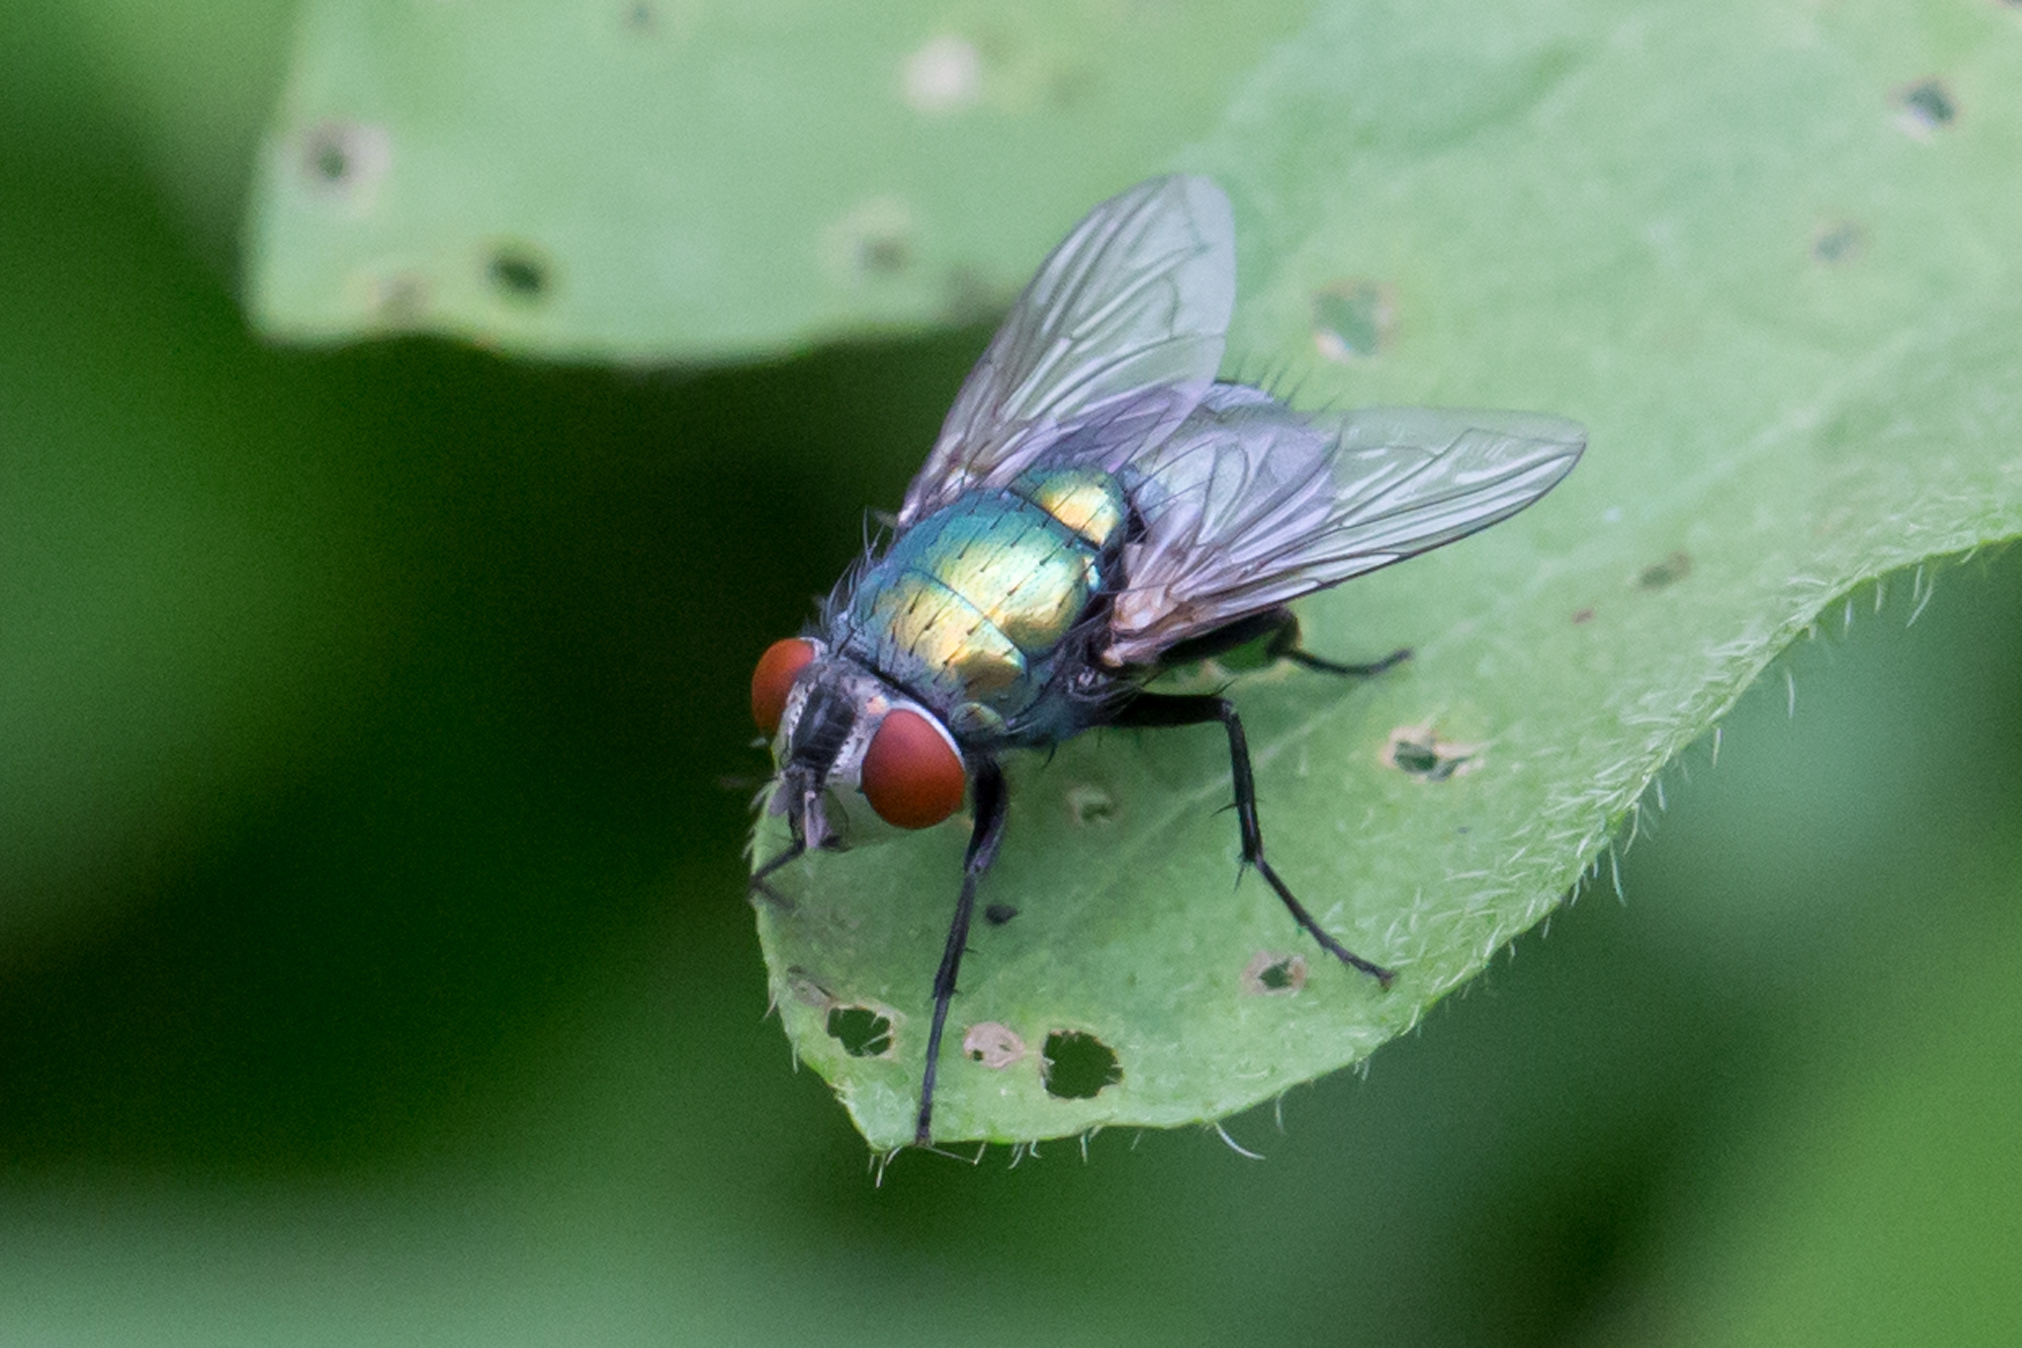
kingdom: Animalia
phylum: Arthropoda
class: Insecta
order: Diptera
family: Calliphoridae
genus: Lucilia
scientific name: Lucilia sericata
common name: Blow fly
